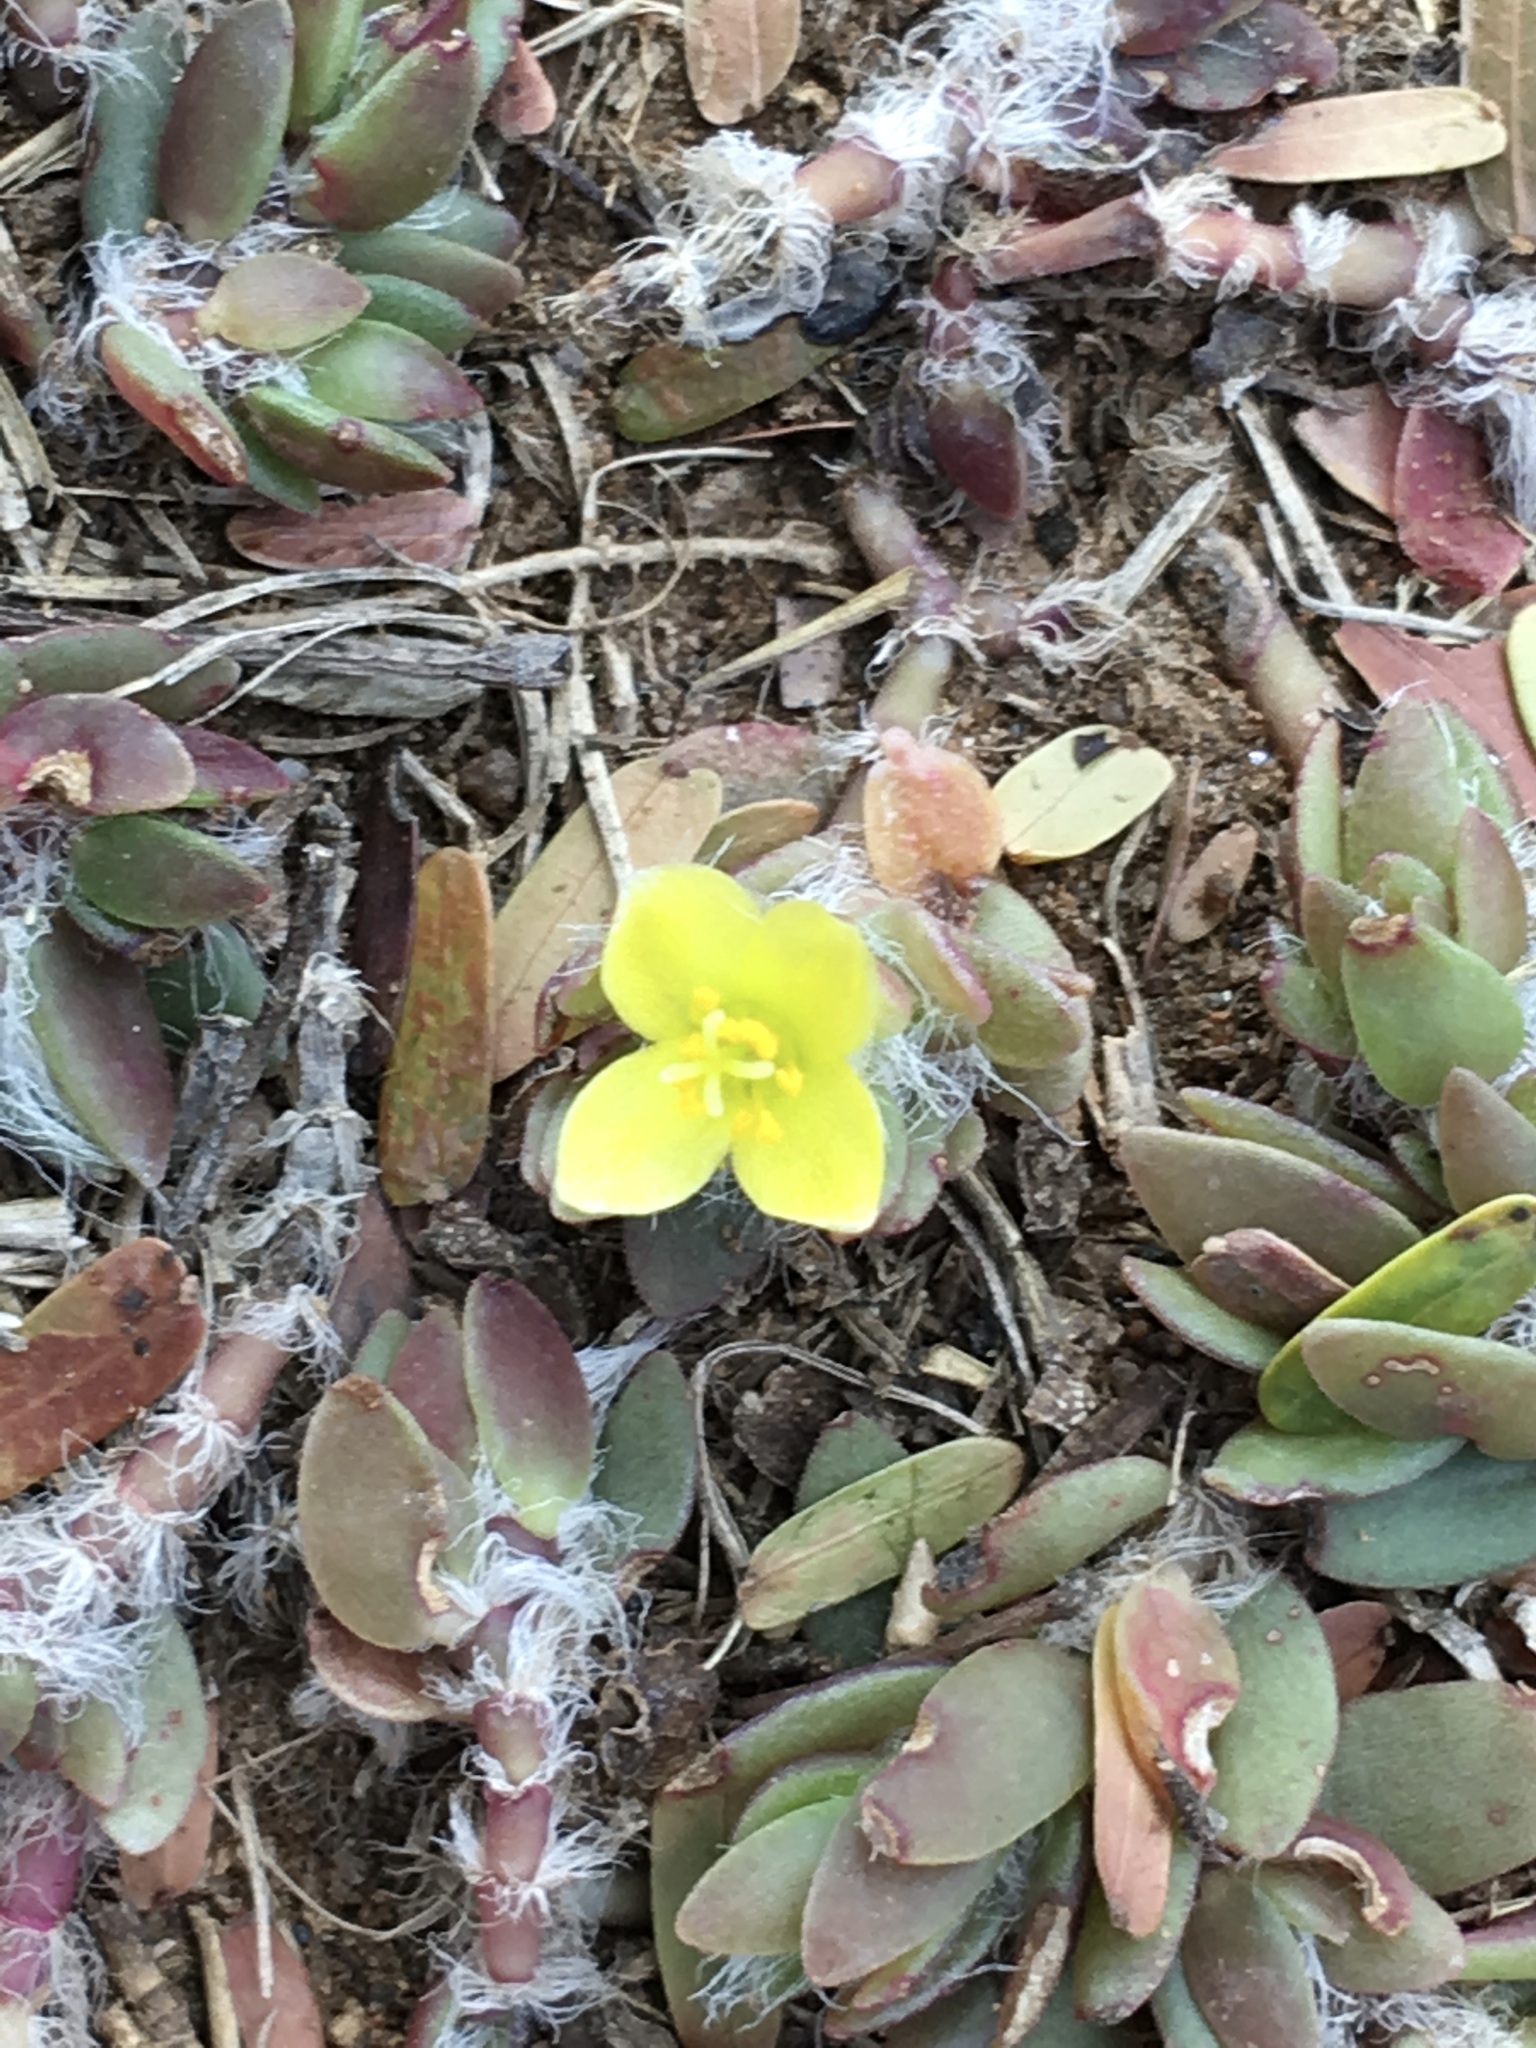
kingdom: Plantae
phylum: Tracheophyta
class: Magnoliopsida
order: Caryophyllales
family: Portulacaceae
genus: Portulaca
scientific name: Portulaca quadrifida
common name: Chickenweed
